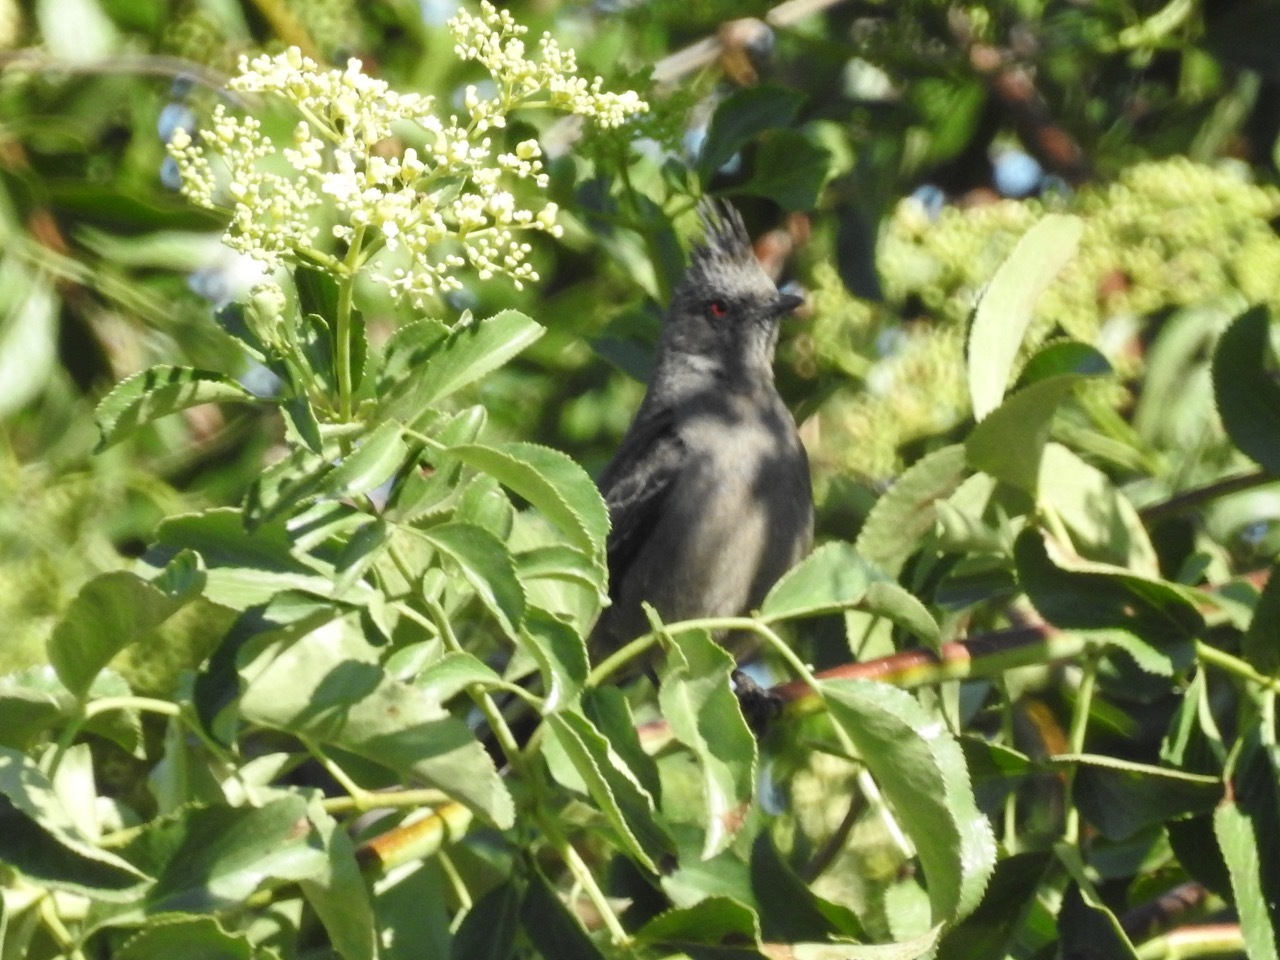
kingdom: Animalia
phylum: Chordata
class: Aves
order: Passeriformes
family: Ptilogonatidae
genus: Phainopepla
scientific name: Phainopepla nitens
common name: Phainopepla
